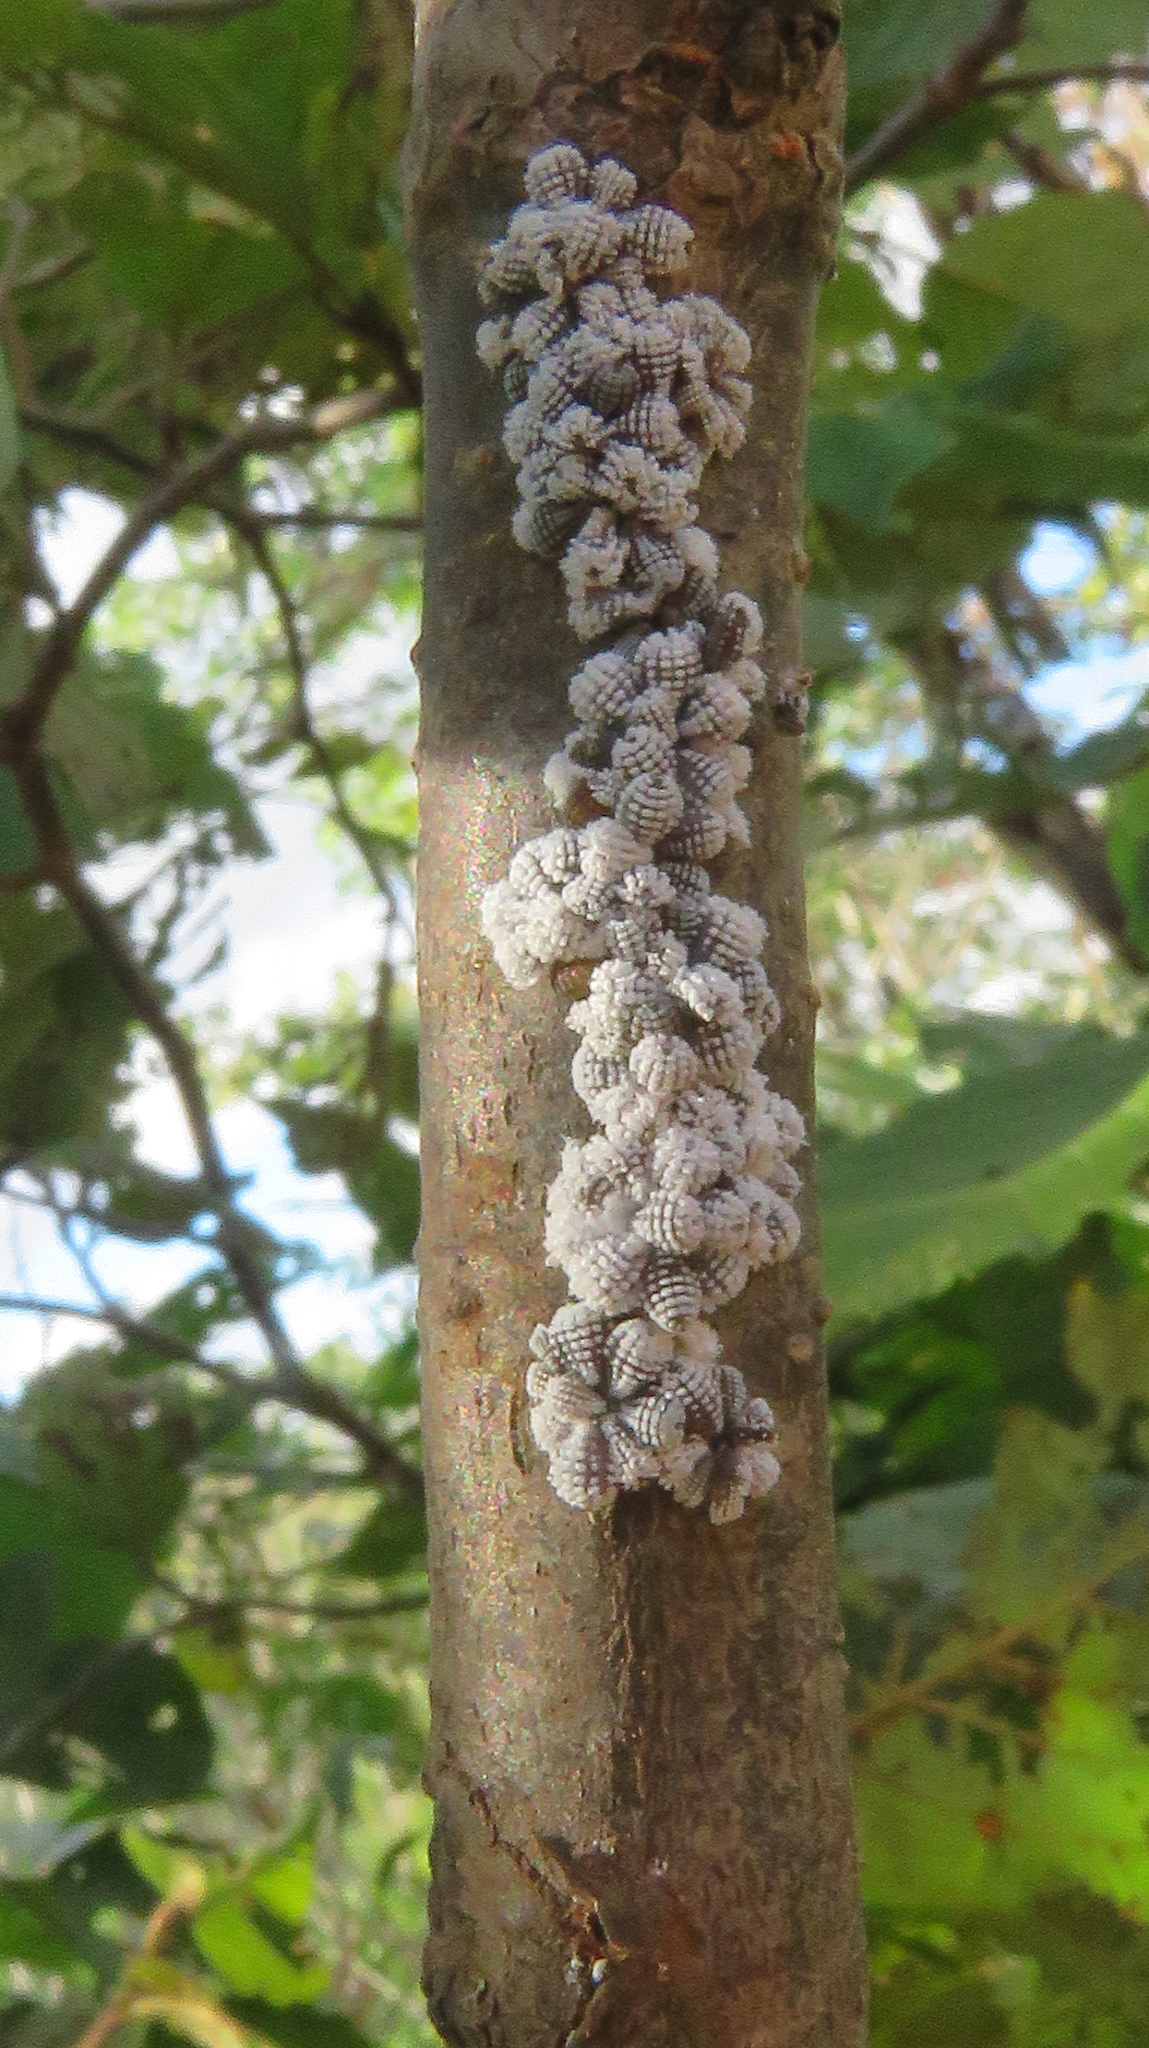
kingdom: Animalia
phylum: Arthropoda
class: Insecta
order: Hemiptera
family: Aphididae
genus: Prociphilus
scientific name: Prociphilus tessellatus
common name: Woolly alder aphid
